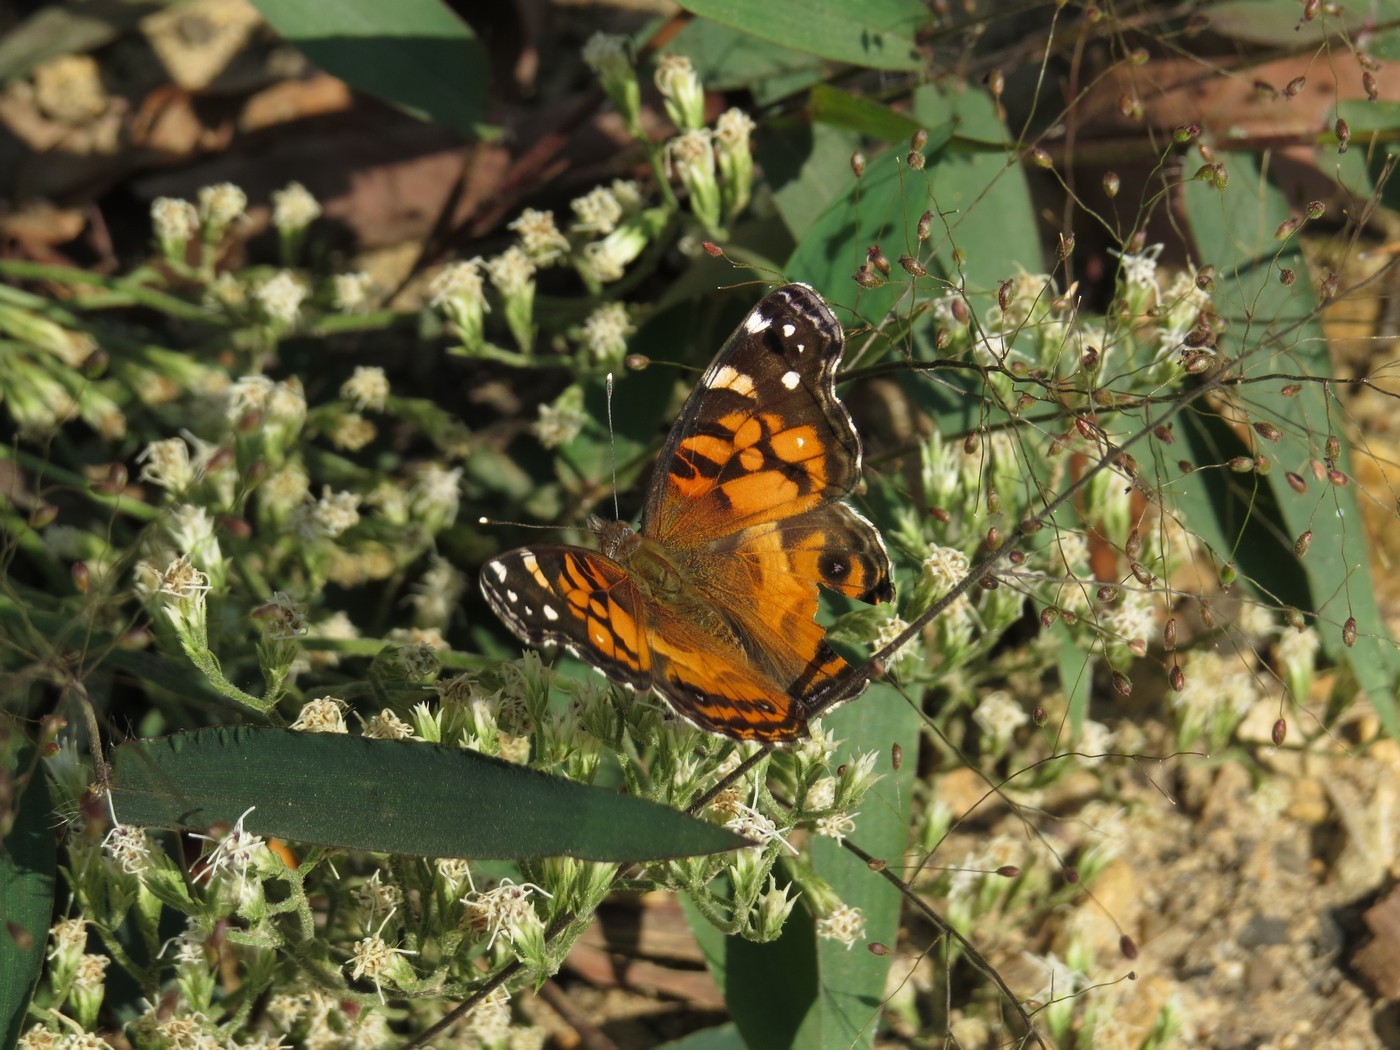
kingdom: Animalia
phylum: Arthropoda
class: Insecta
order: Lepidoptera
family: Nymphalidae
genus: Vanessa
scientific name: Vanessa virginiensis
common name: American lady
